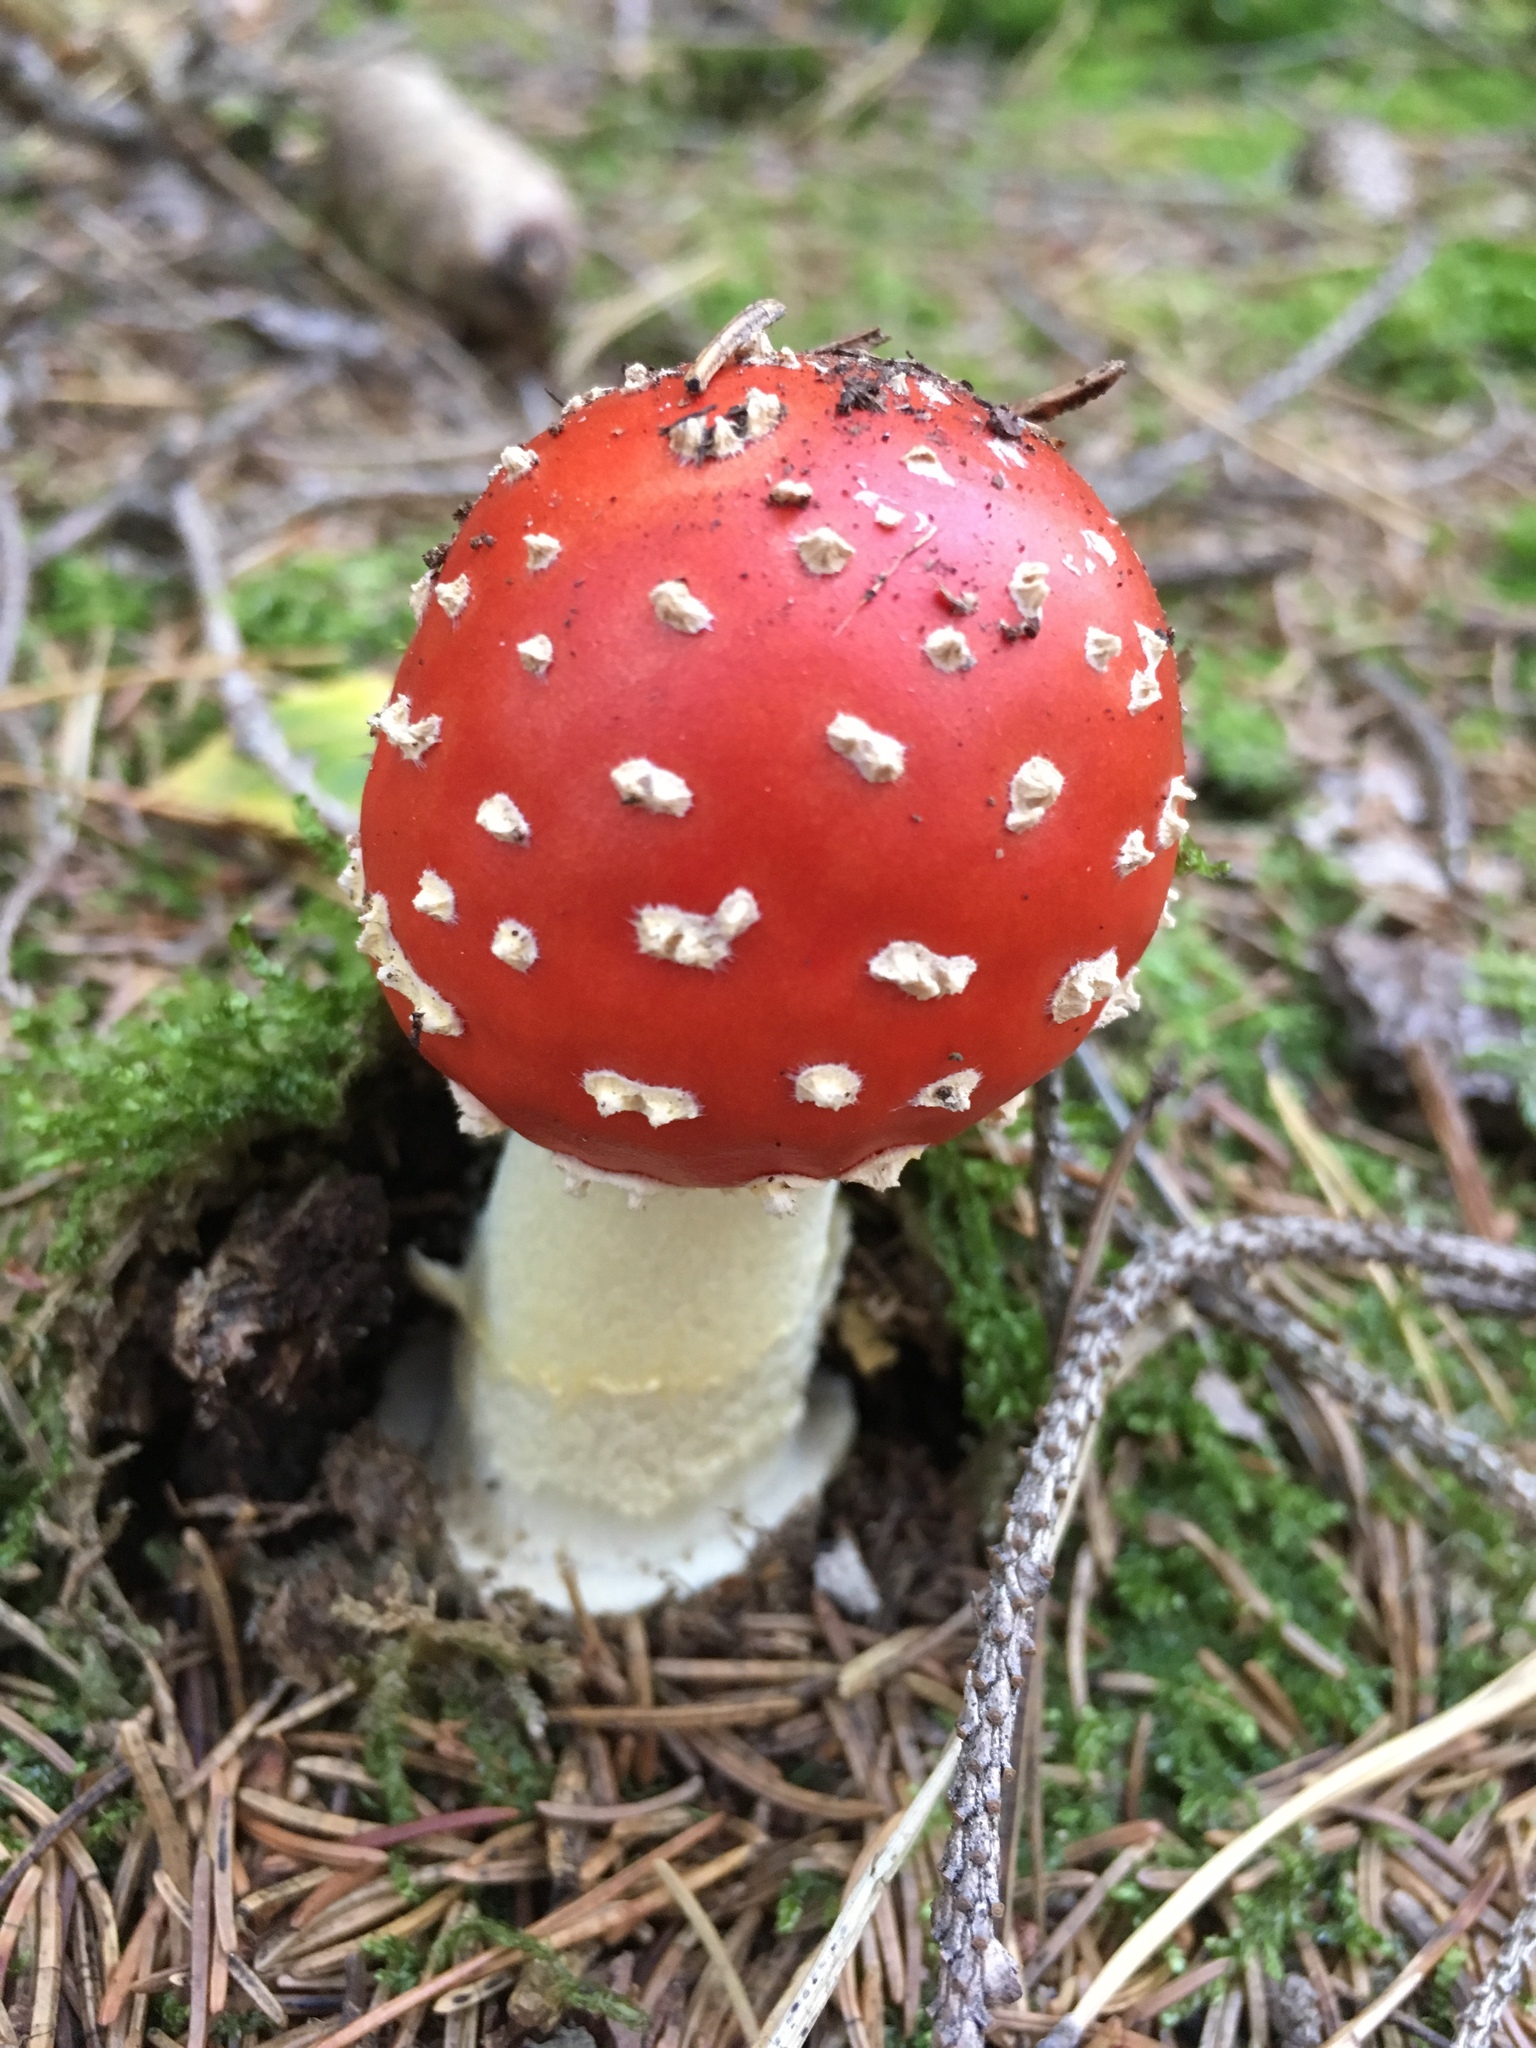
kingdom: Fungi
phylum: Basidiomycota
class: Agaricomycetes
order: Agaricales
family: Amanitaceae
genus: Amanita
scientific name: Amanita muscaria
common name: Fly agaric
